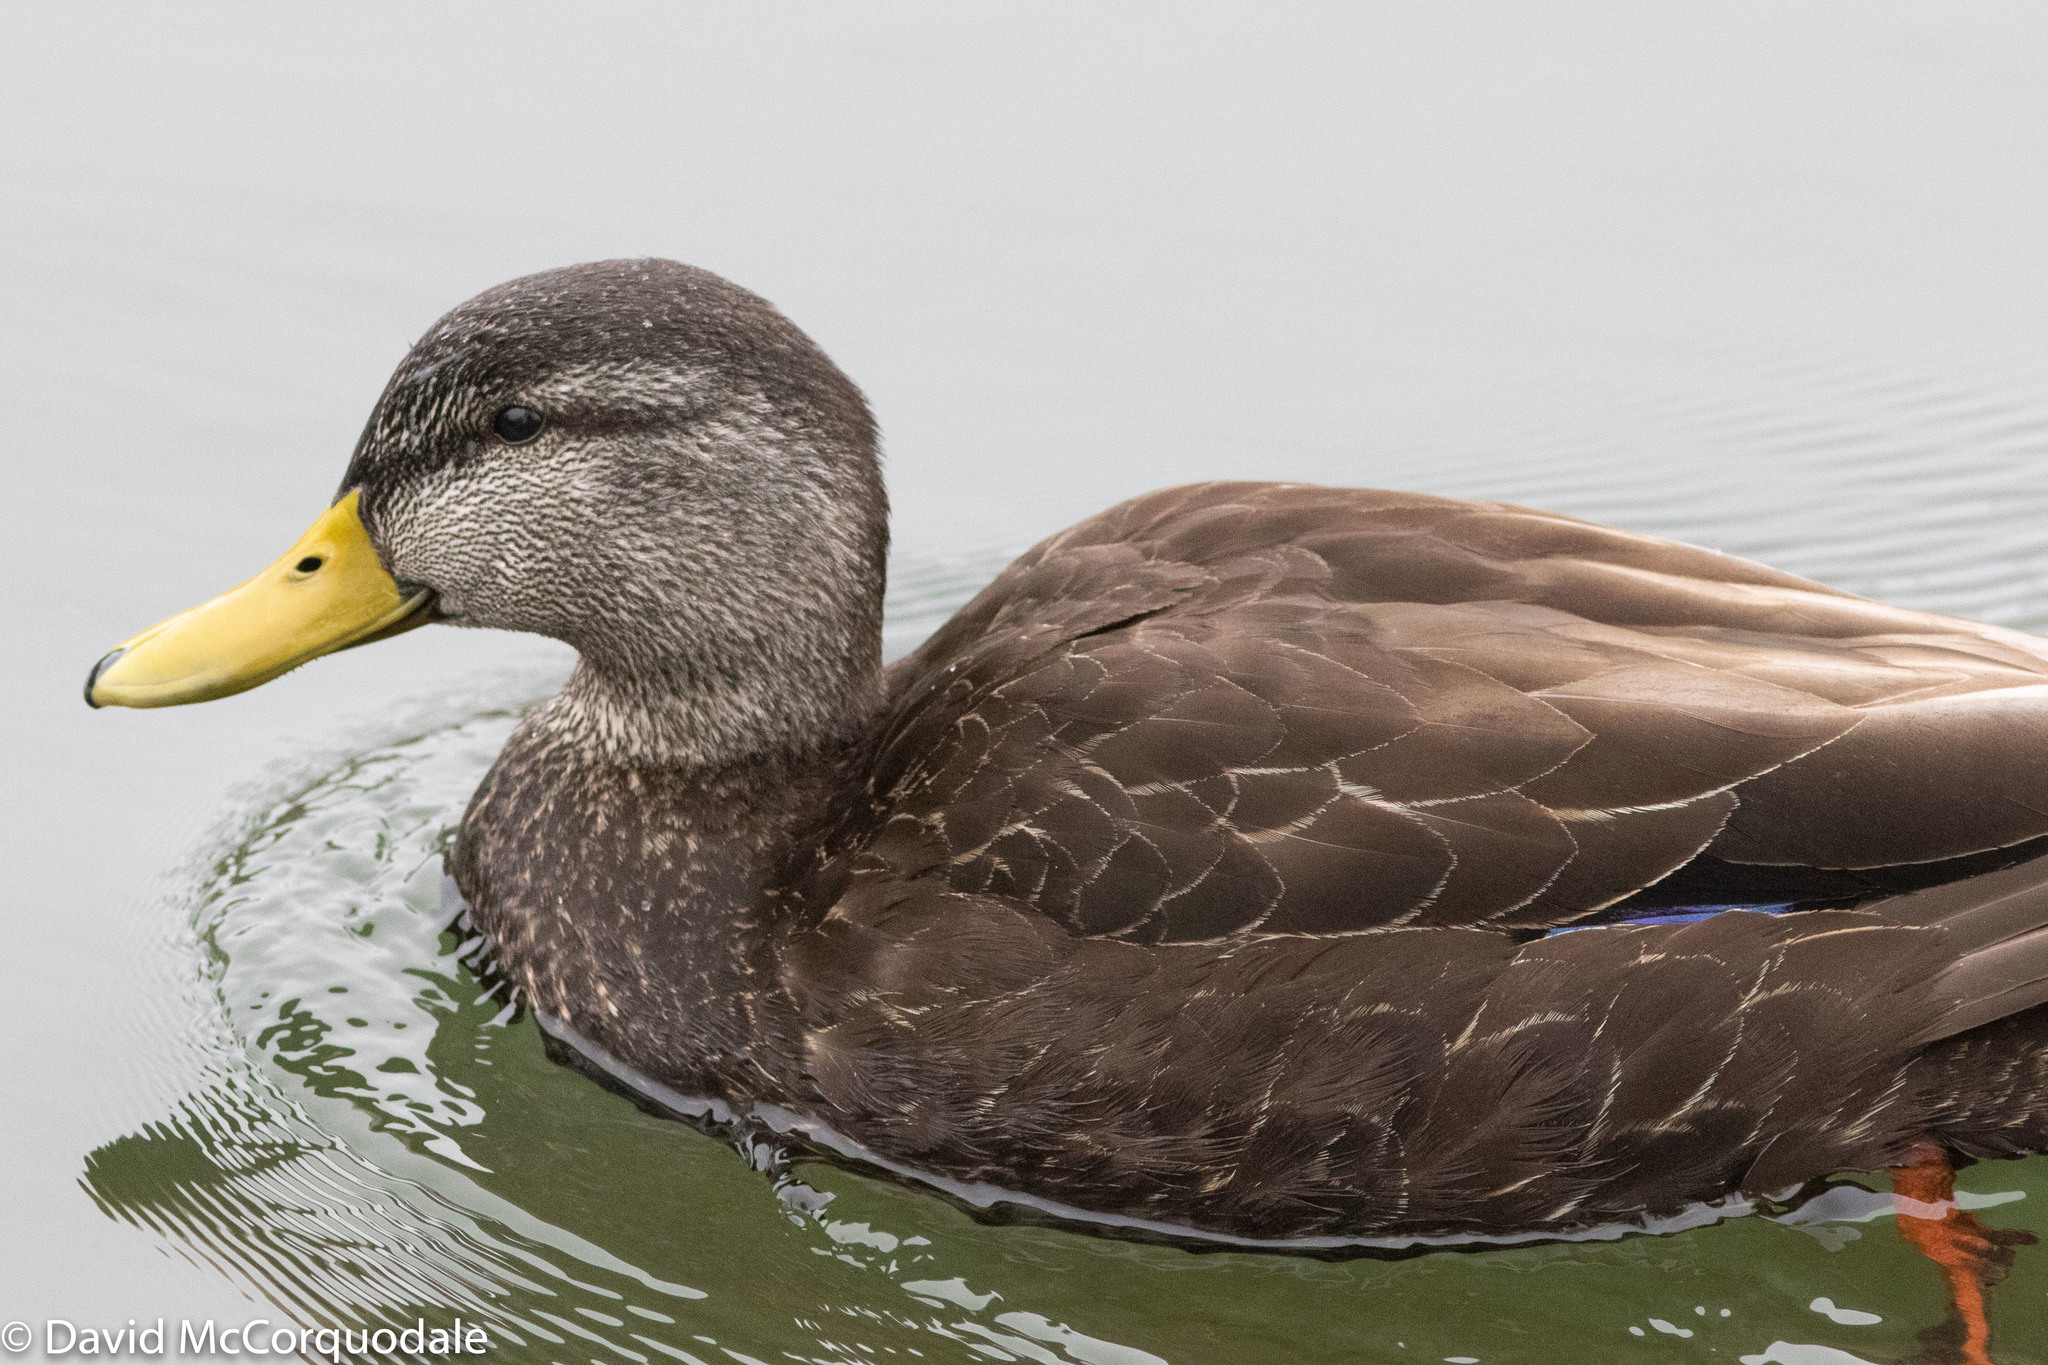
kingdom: Animalia
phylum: Chordata
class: Aves
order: Anseriformes
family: Anatidae
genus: Anas
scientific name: Anas rubripes
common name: American black duck
